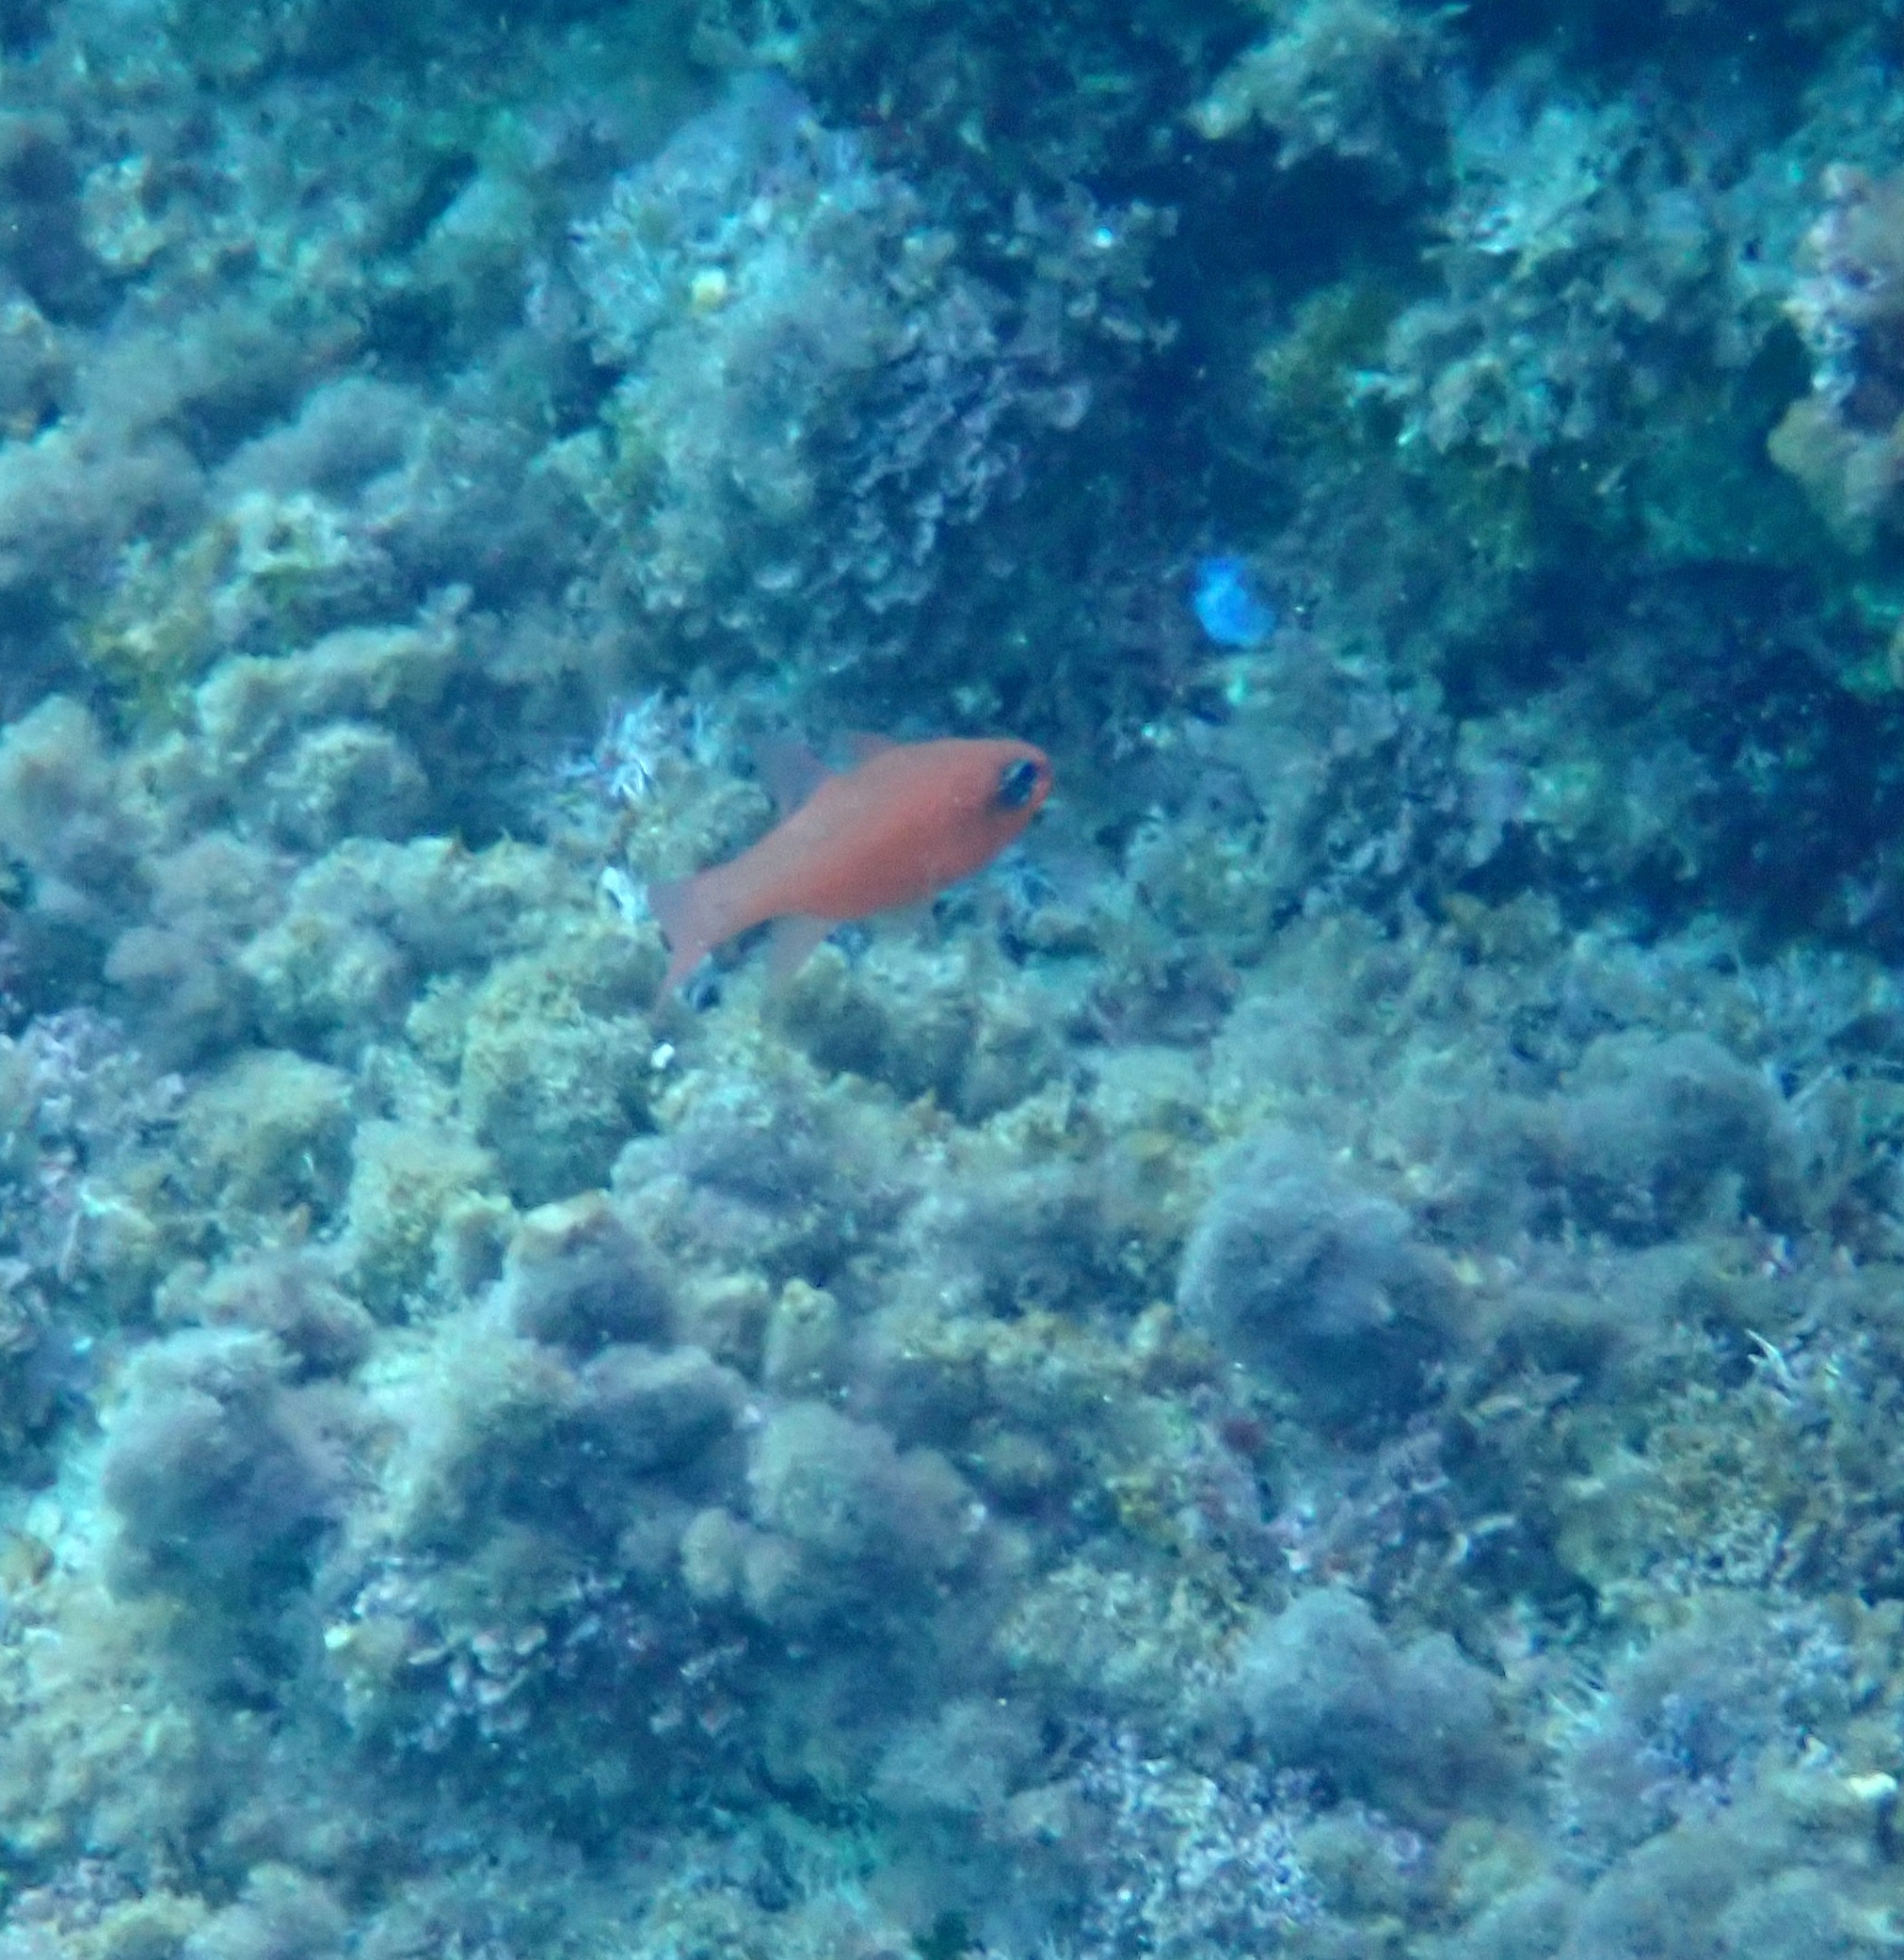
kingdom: Animalia
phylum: Chordata
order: Perciformes
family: Apogonidae
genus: Apogon
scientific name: Apogon imberbis
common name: Cardinal fish
